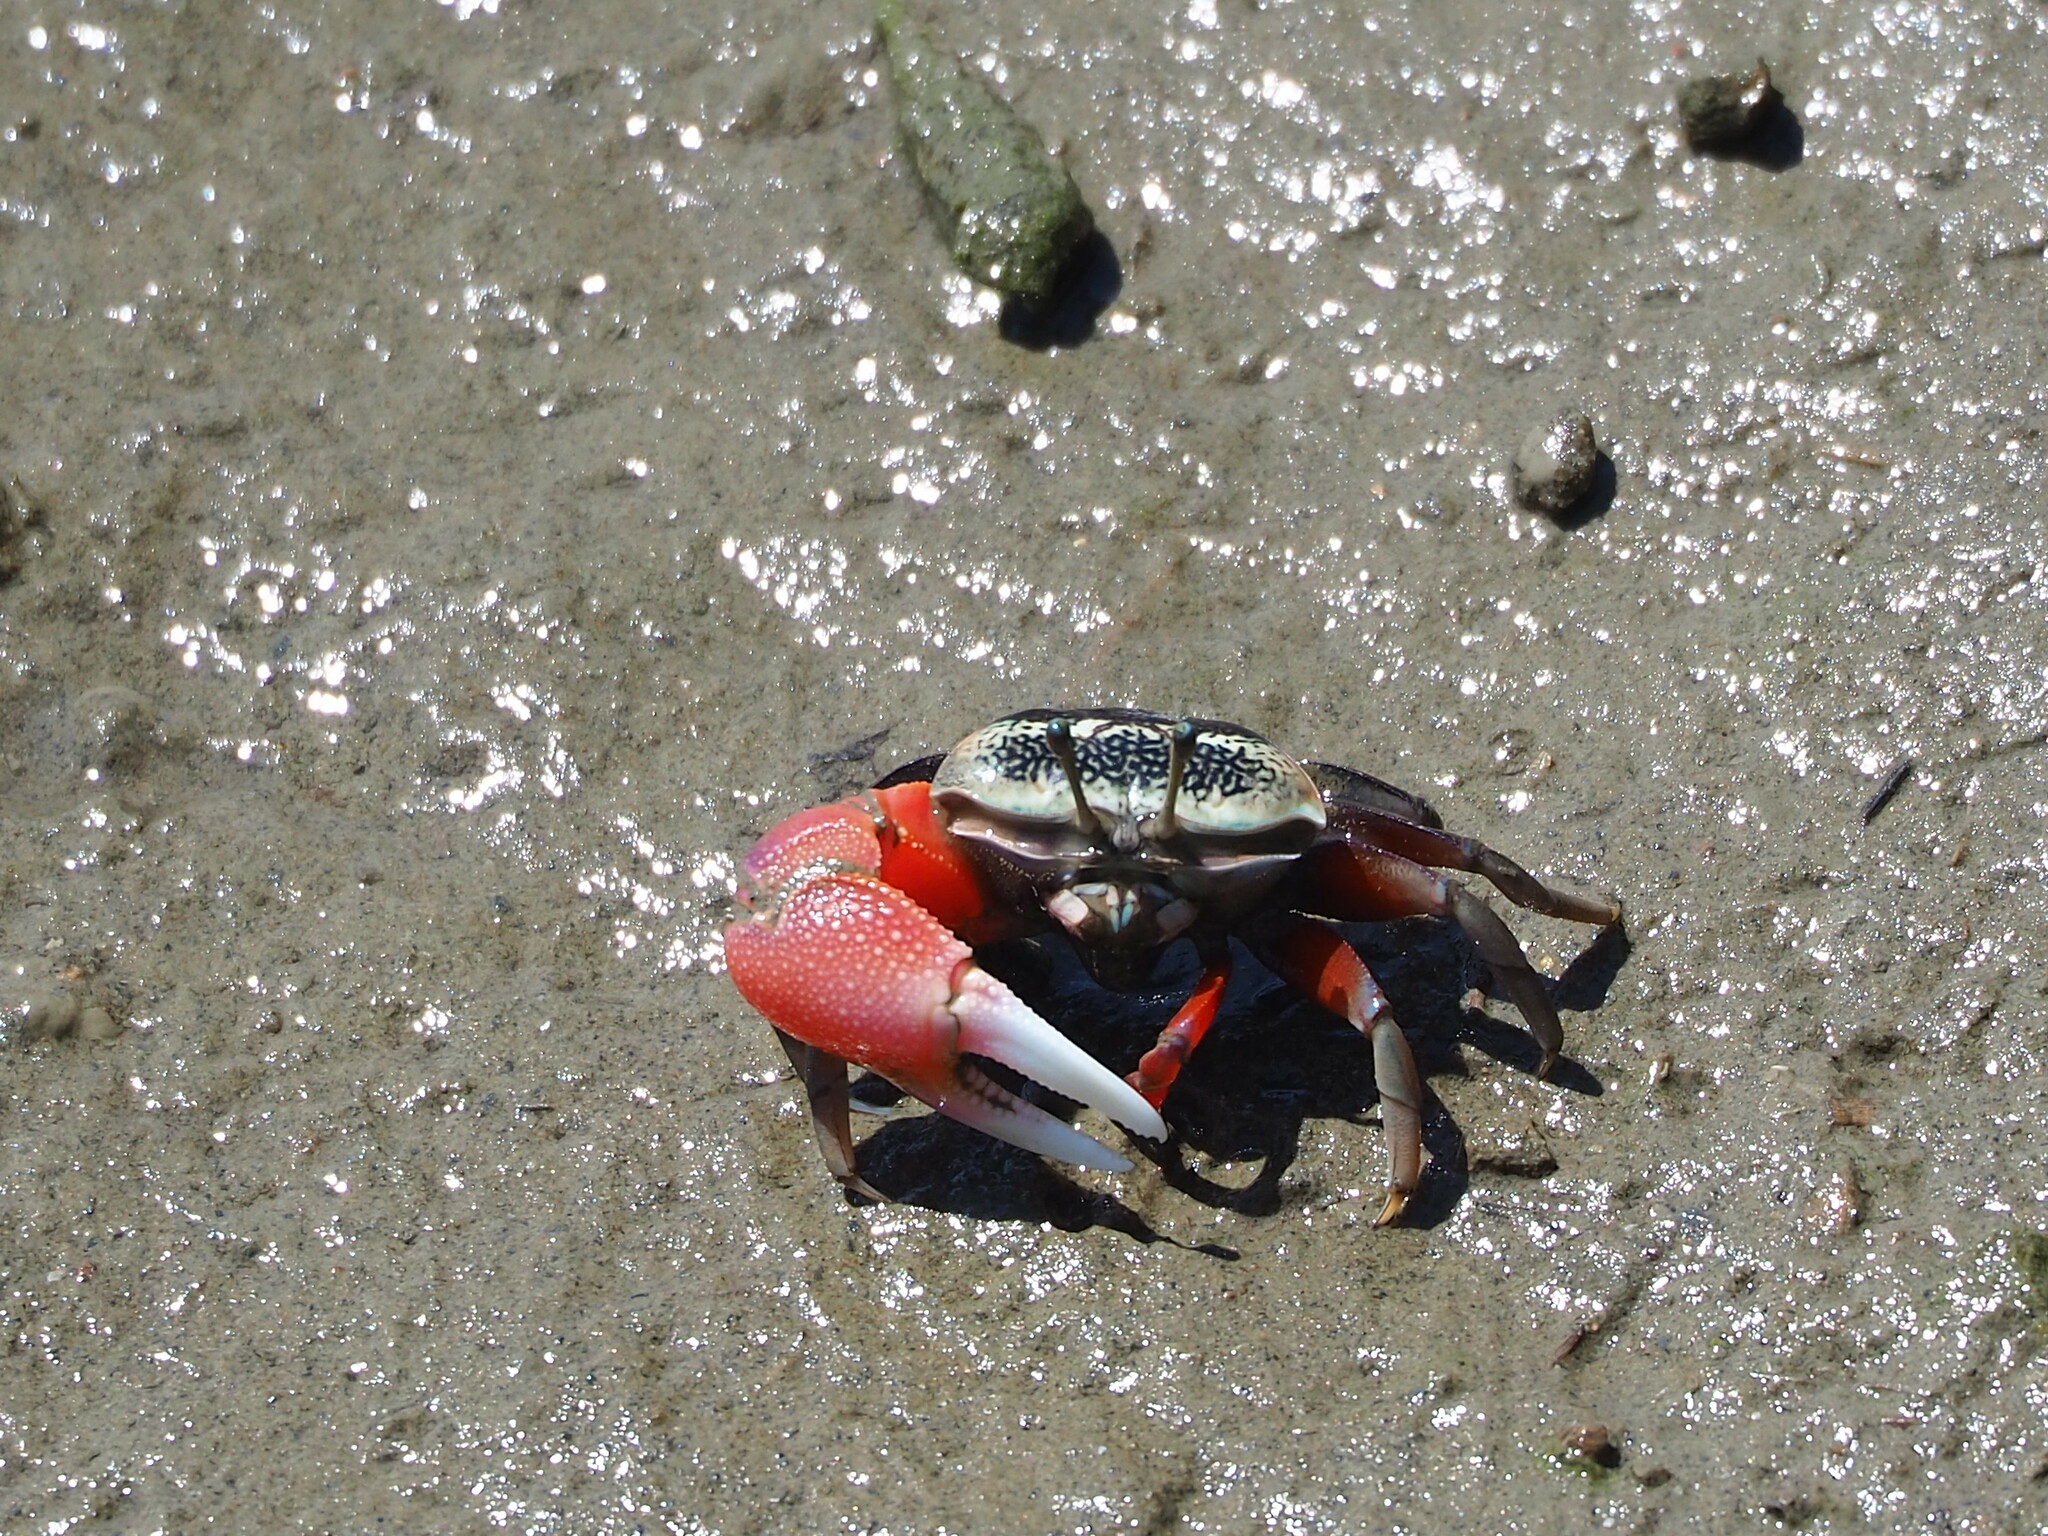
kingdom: Animalia
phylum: Arthropoda
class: Malacostraca
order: Decapoda
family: Ocypodidae
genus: Tubuca
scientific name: Tubuca arcuata
